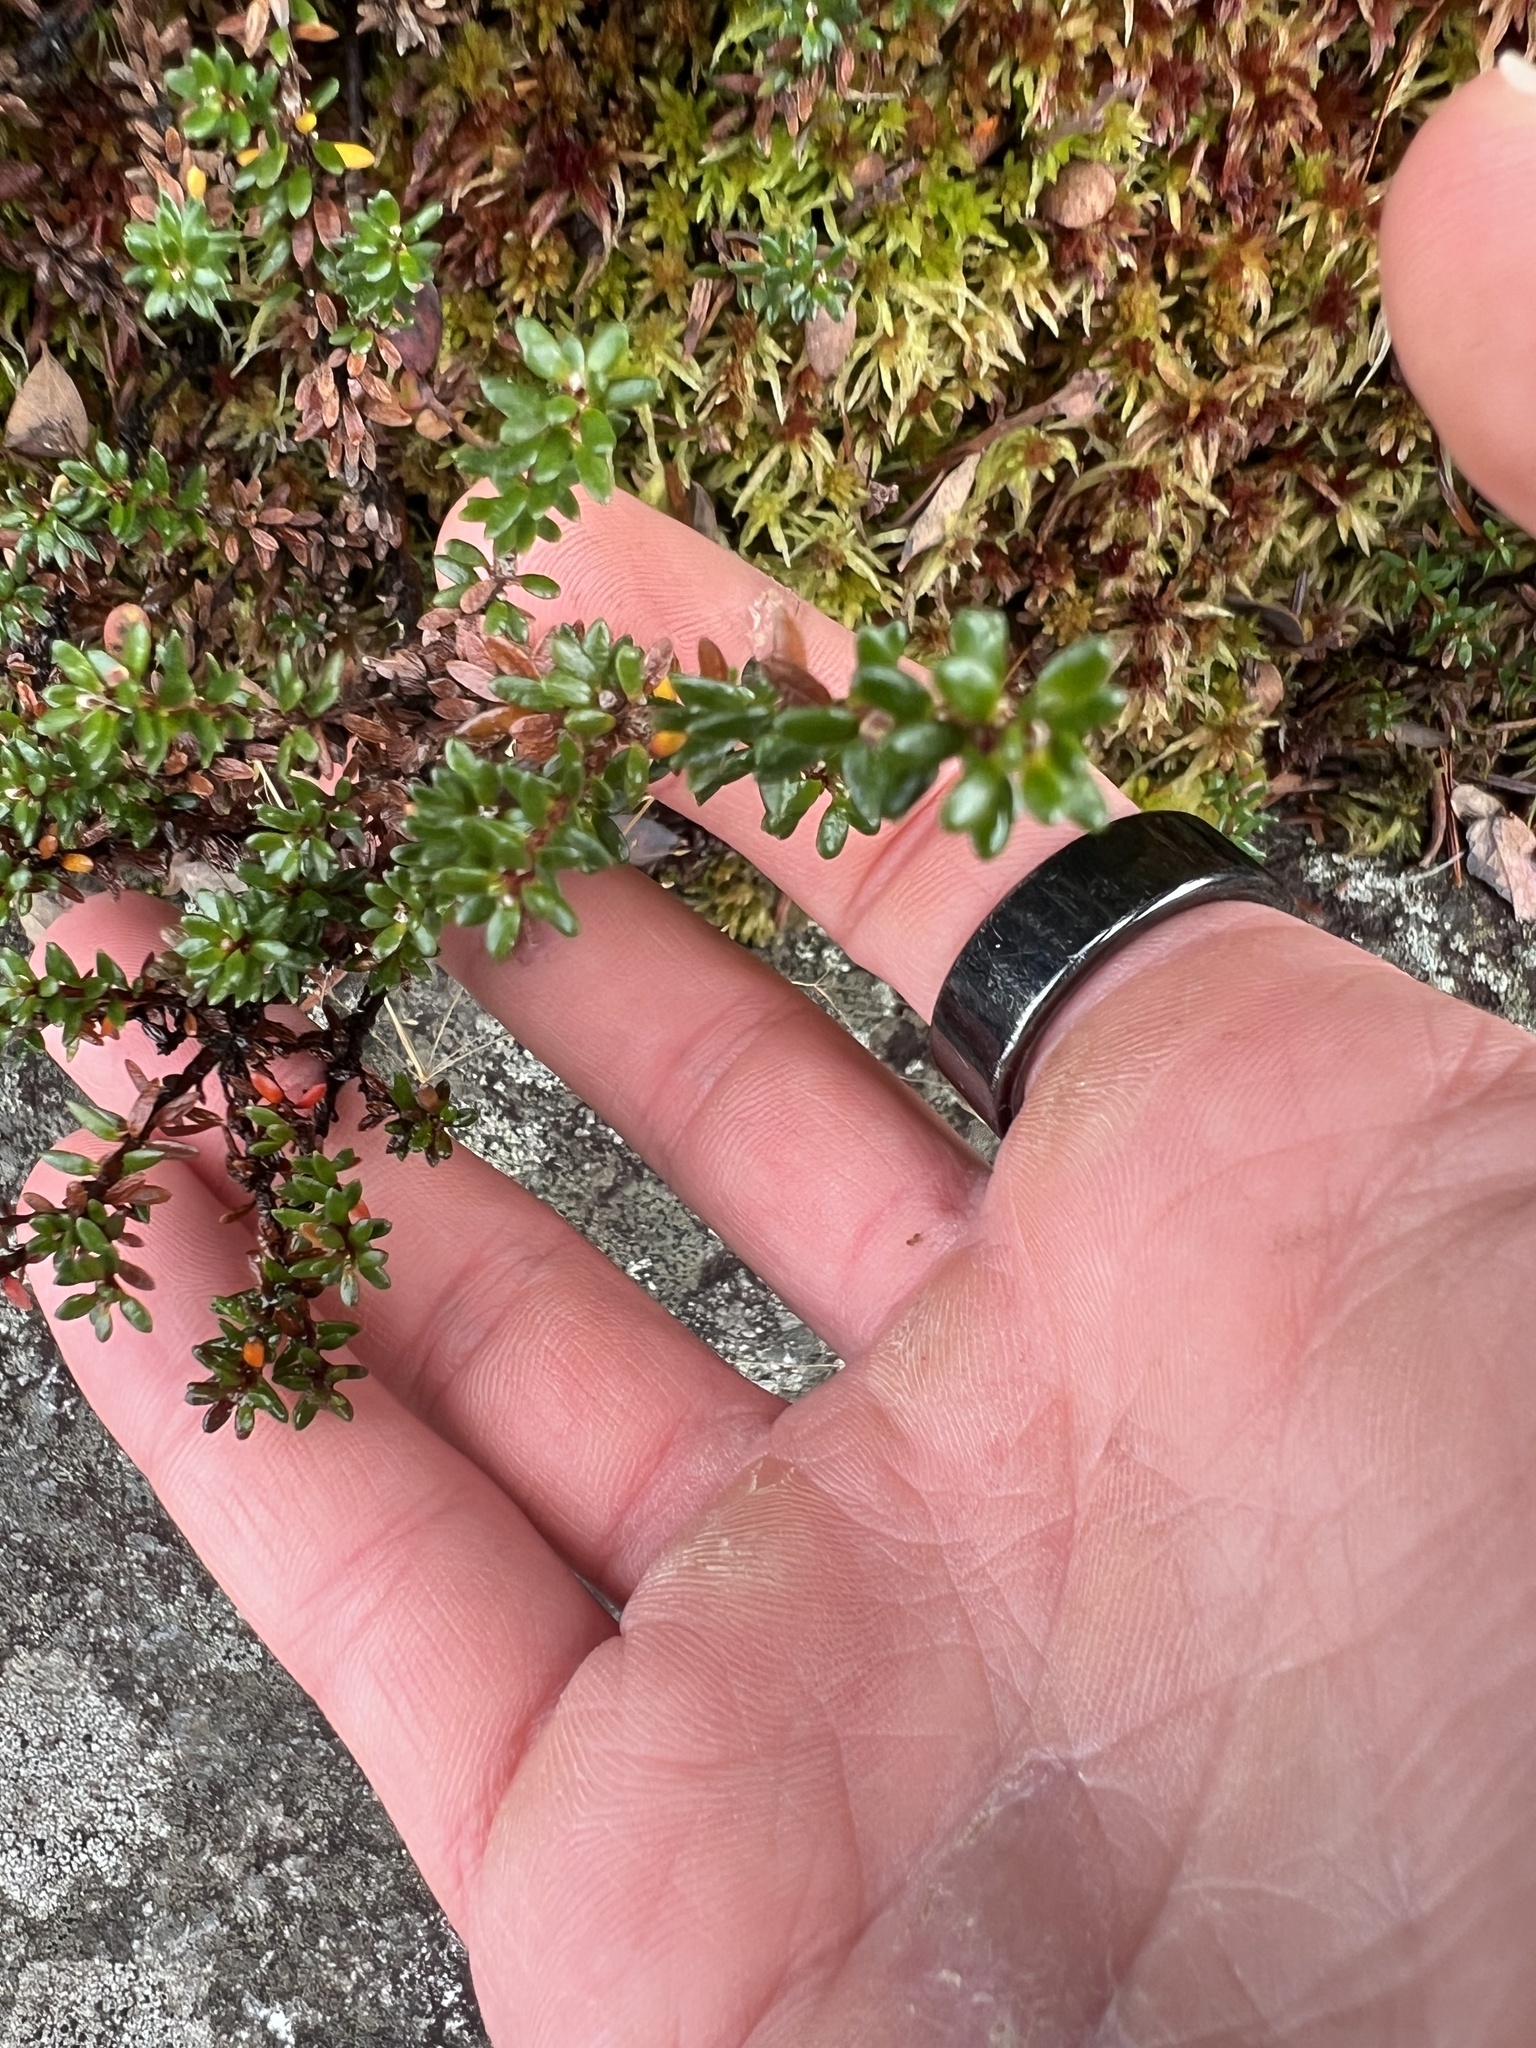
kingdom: Plantae
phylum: Tracheophyta
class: Magnoliopsida
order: Ericales
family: Ericaceae
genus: Empetrum
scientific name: Empetrum nigrum
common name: Black crowberry
